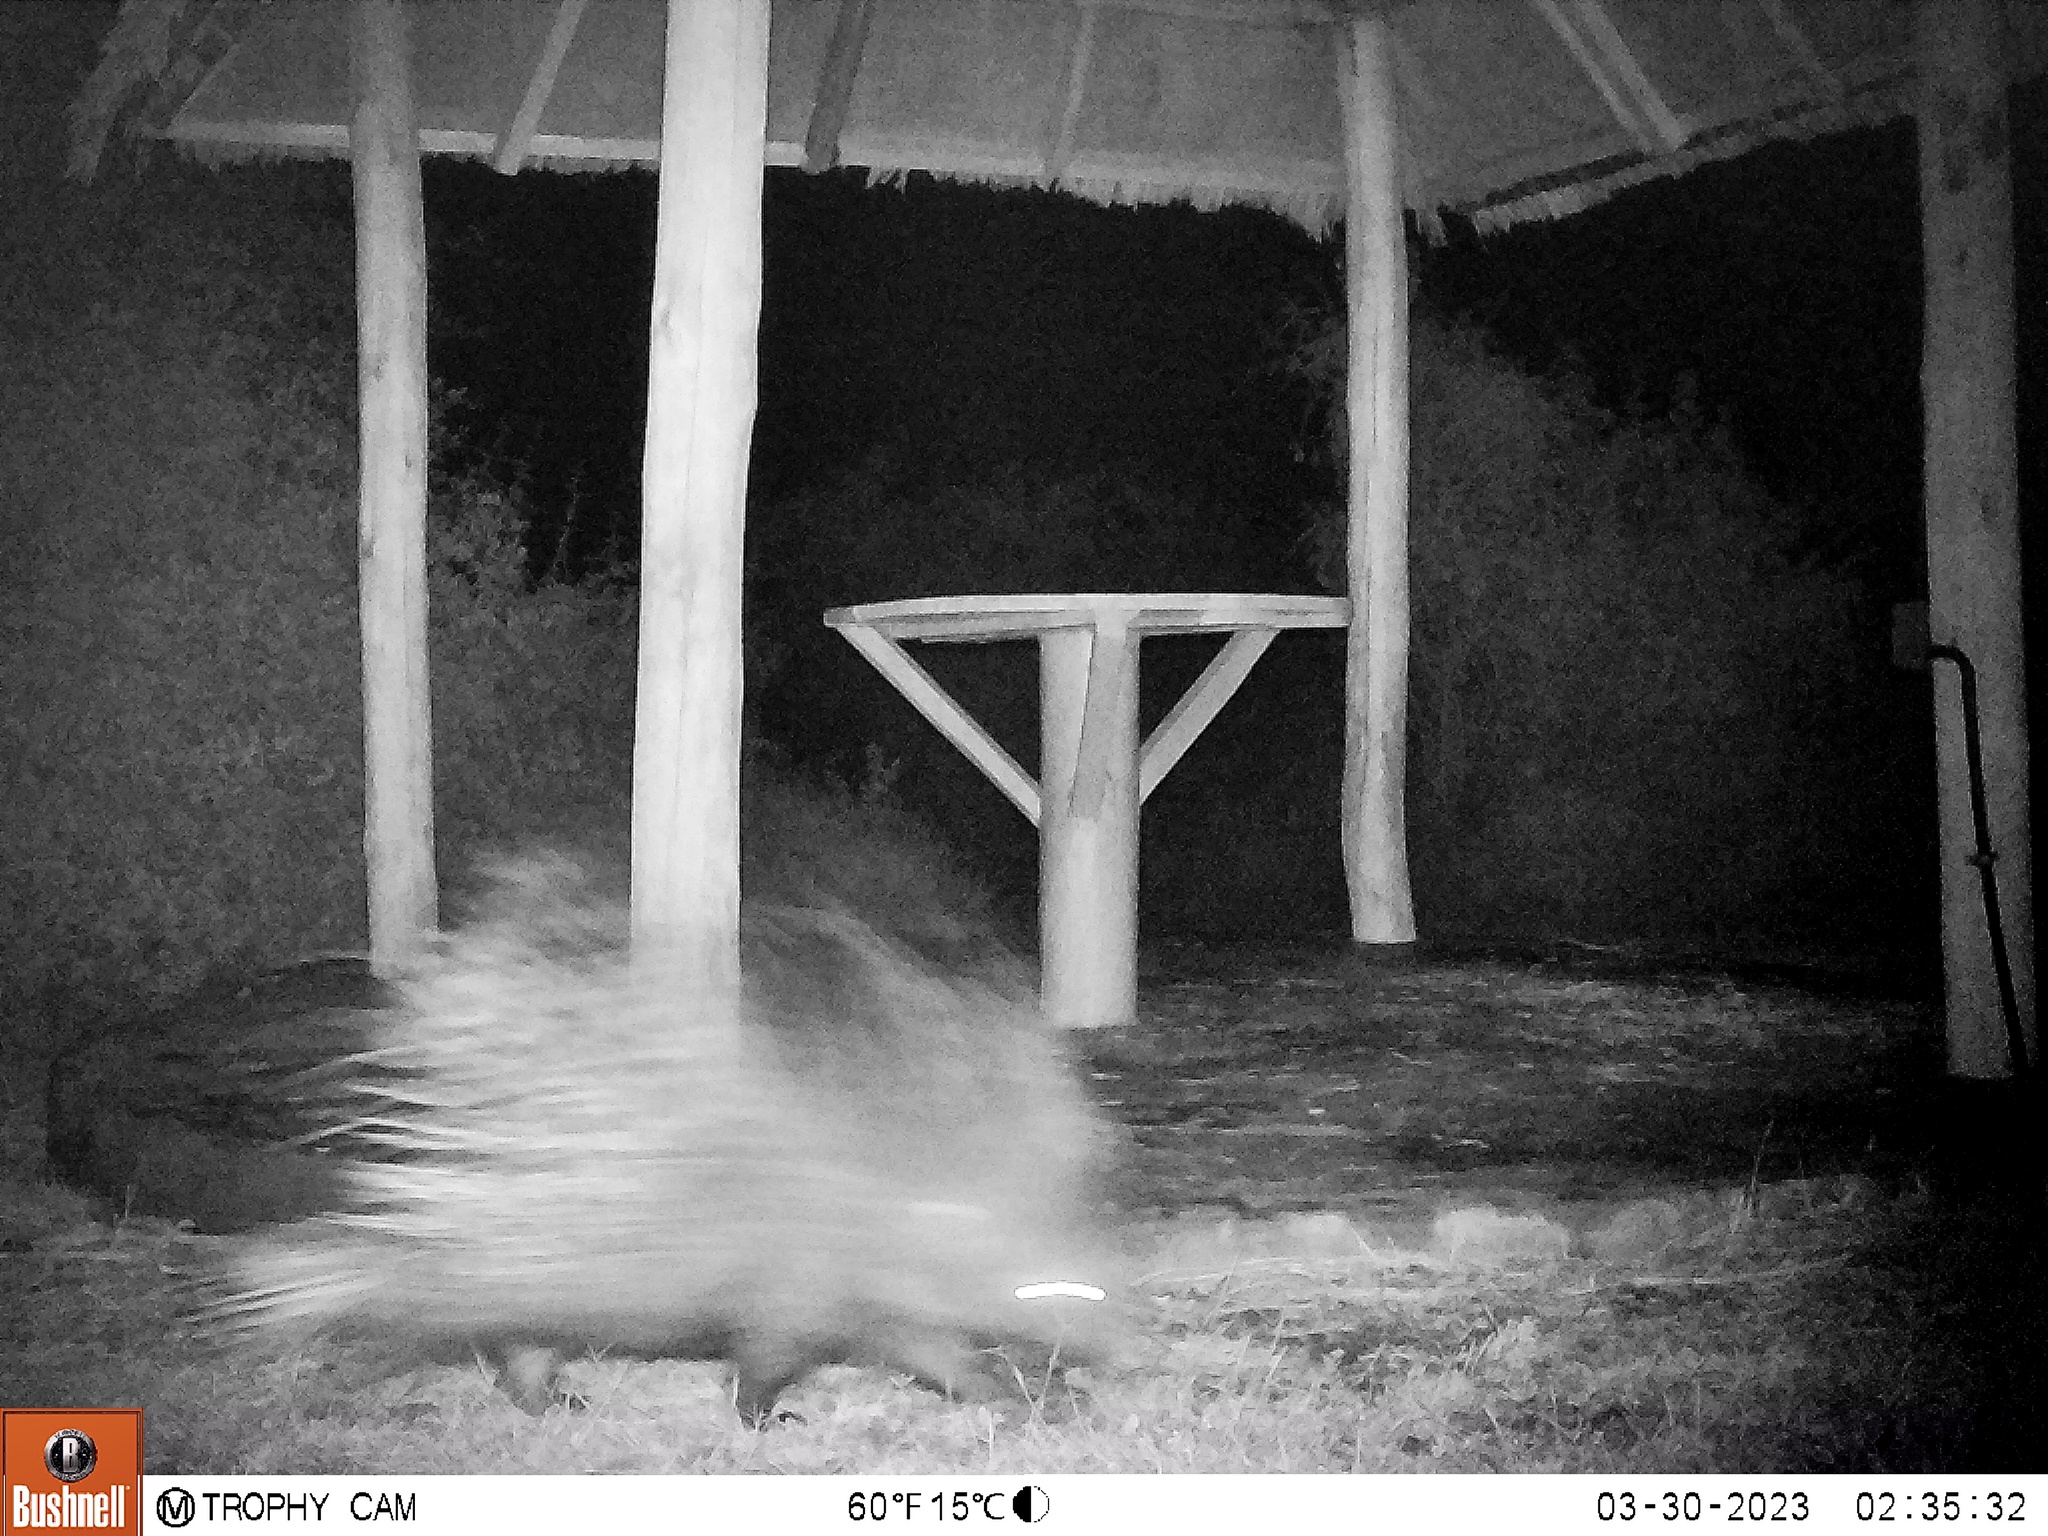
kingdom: Animalia
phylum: Chordata
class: Mammalia
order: Rodentia
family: Hystricidae
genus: Hystrix
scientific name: Hystrix cristata
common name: Crested porcupine
